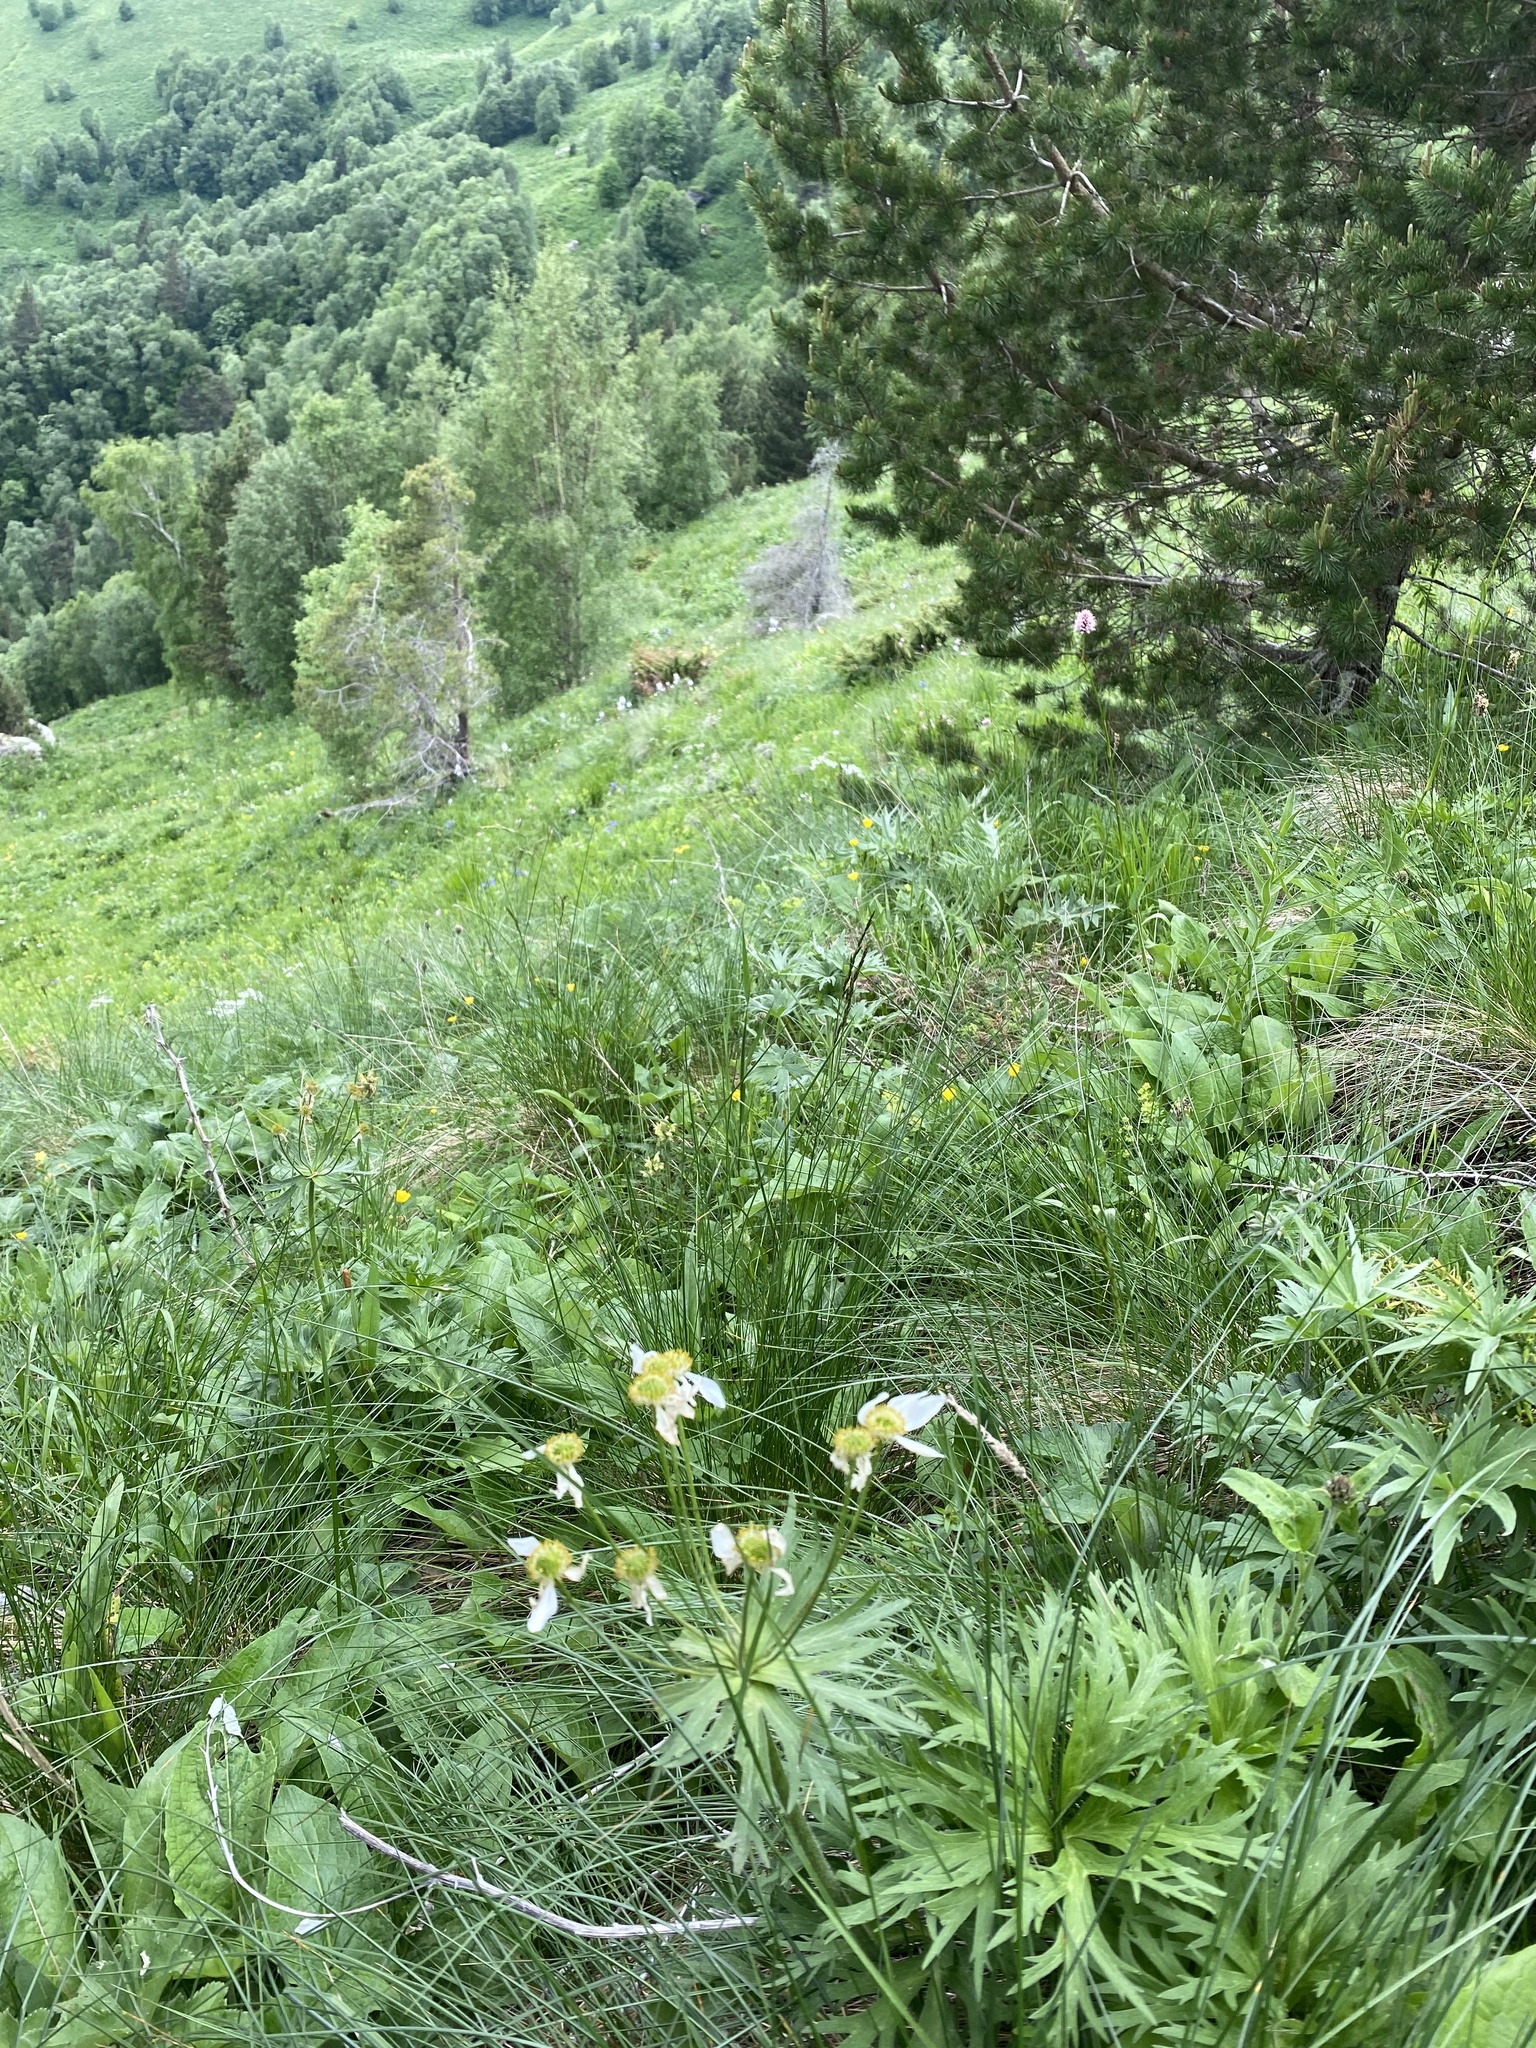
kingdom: Plantae
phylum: Tracheophyta
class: Magnoliopsida
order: Ranunculales
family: Ranunculaceae
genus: Anemonastrum
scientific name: Anemonastrum narcissiflorum
